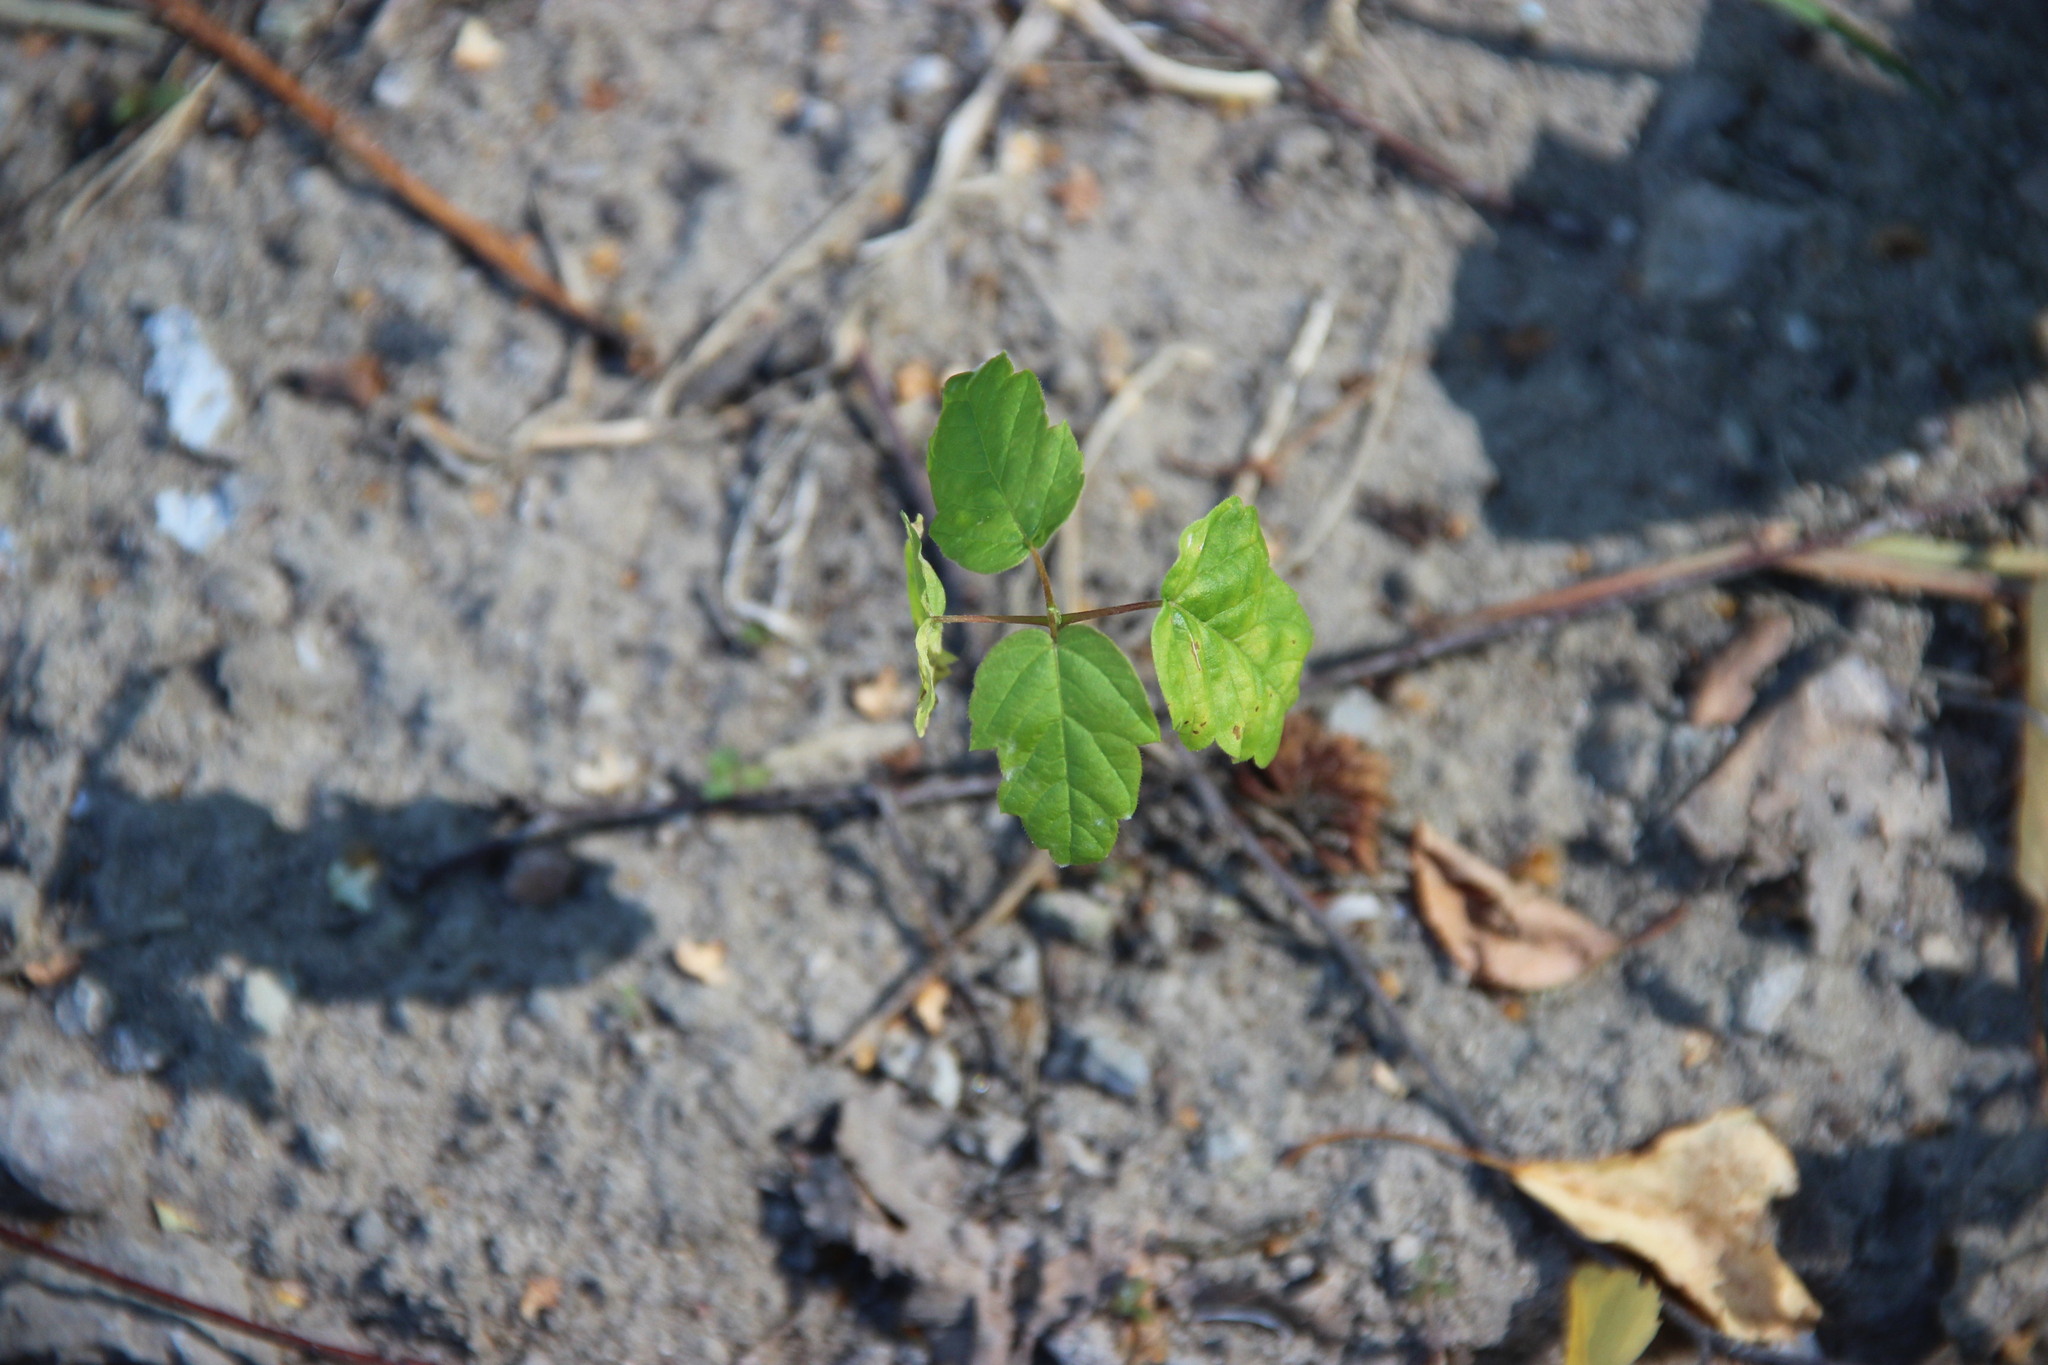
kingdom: Plantae
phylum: Tracheophyta
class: Magnoliopsida
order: Sapindales
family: Sapindaceae
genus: Acer
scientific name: Acer negundo
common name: Ashleaf maple
